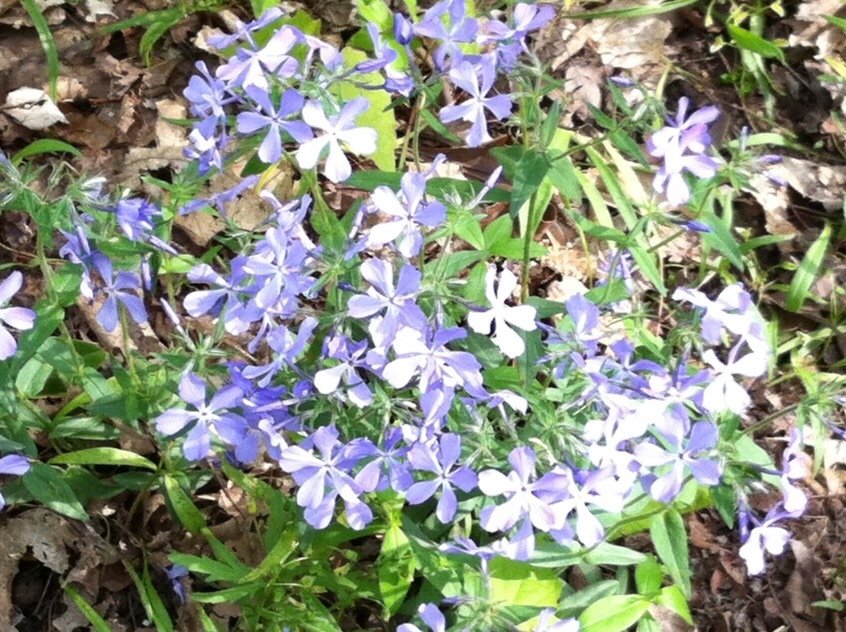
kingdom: Plantae
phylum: Tracheophyta
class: Magnoliopsida
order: Ericales
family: Polemoniaceae
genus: Phlox
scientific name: Phlox divaricata
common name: Blue phlox
